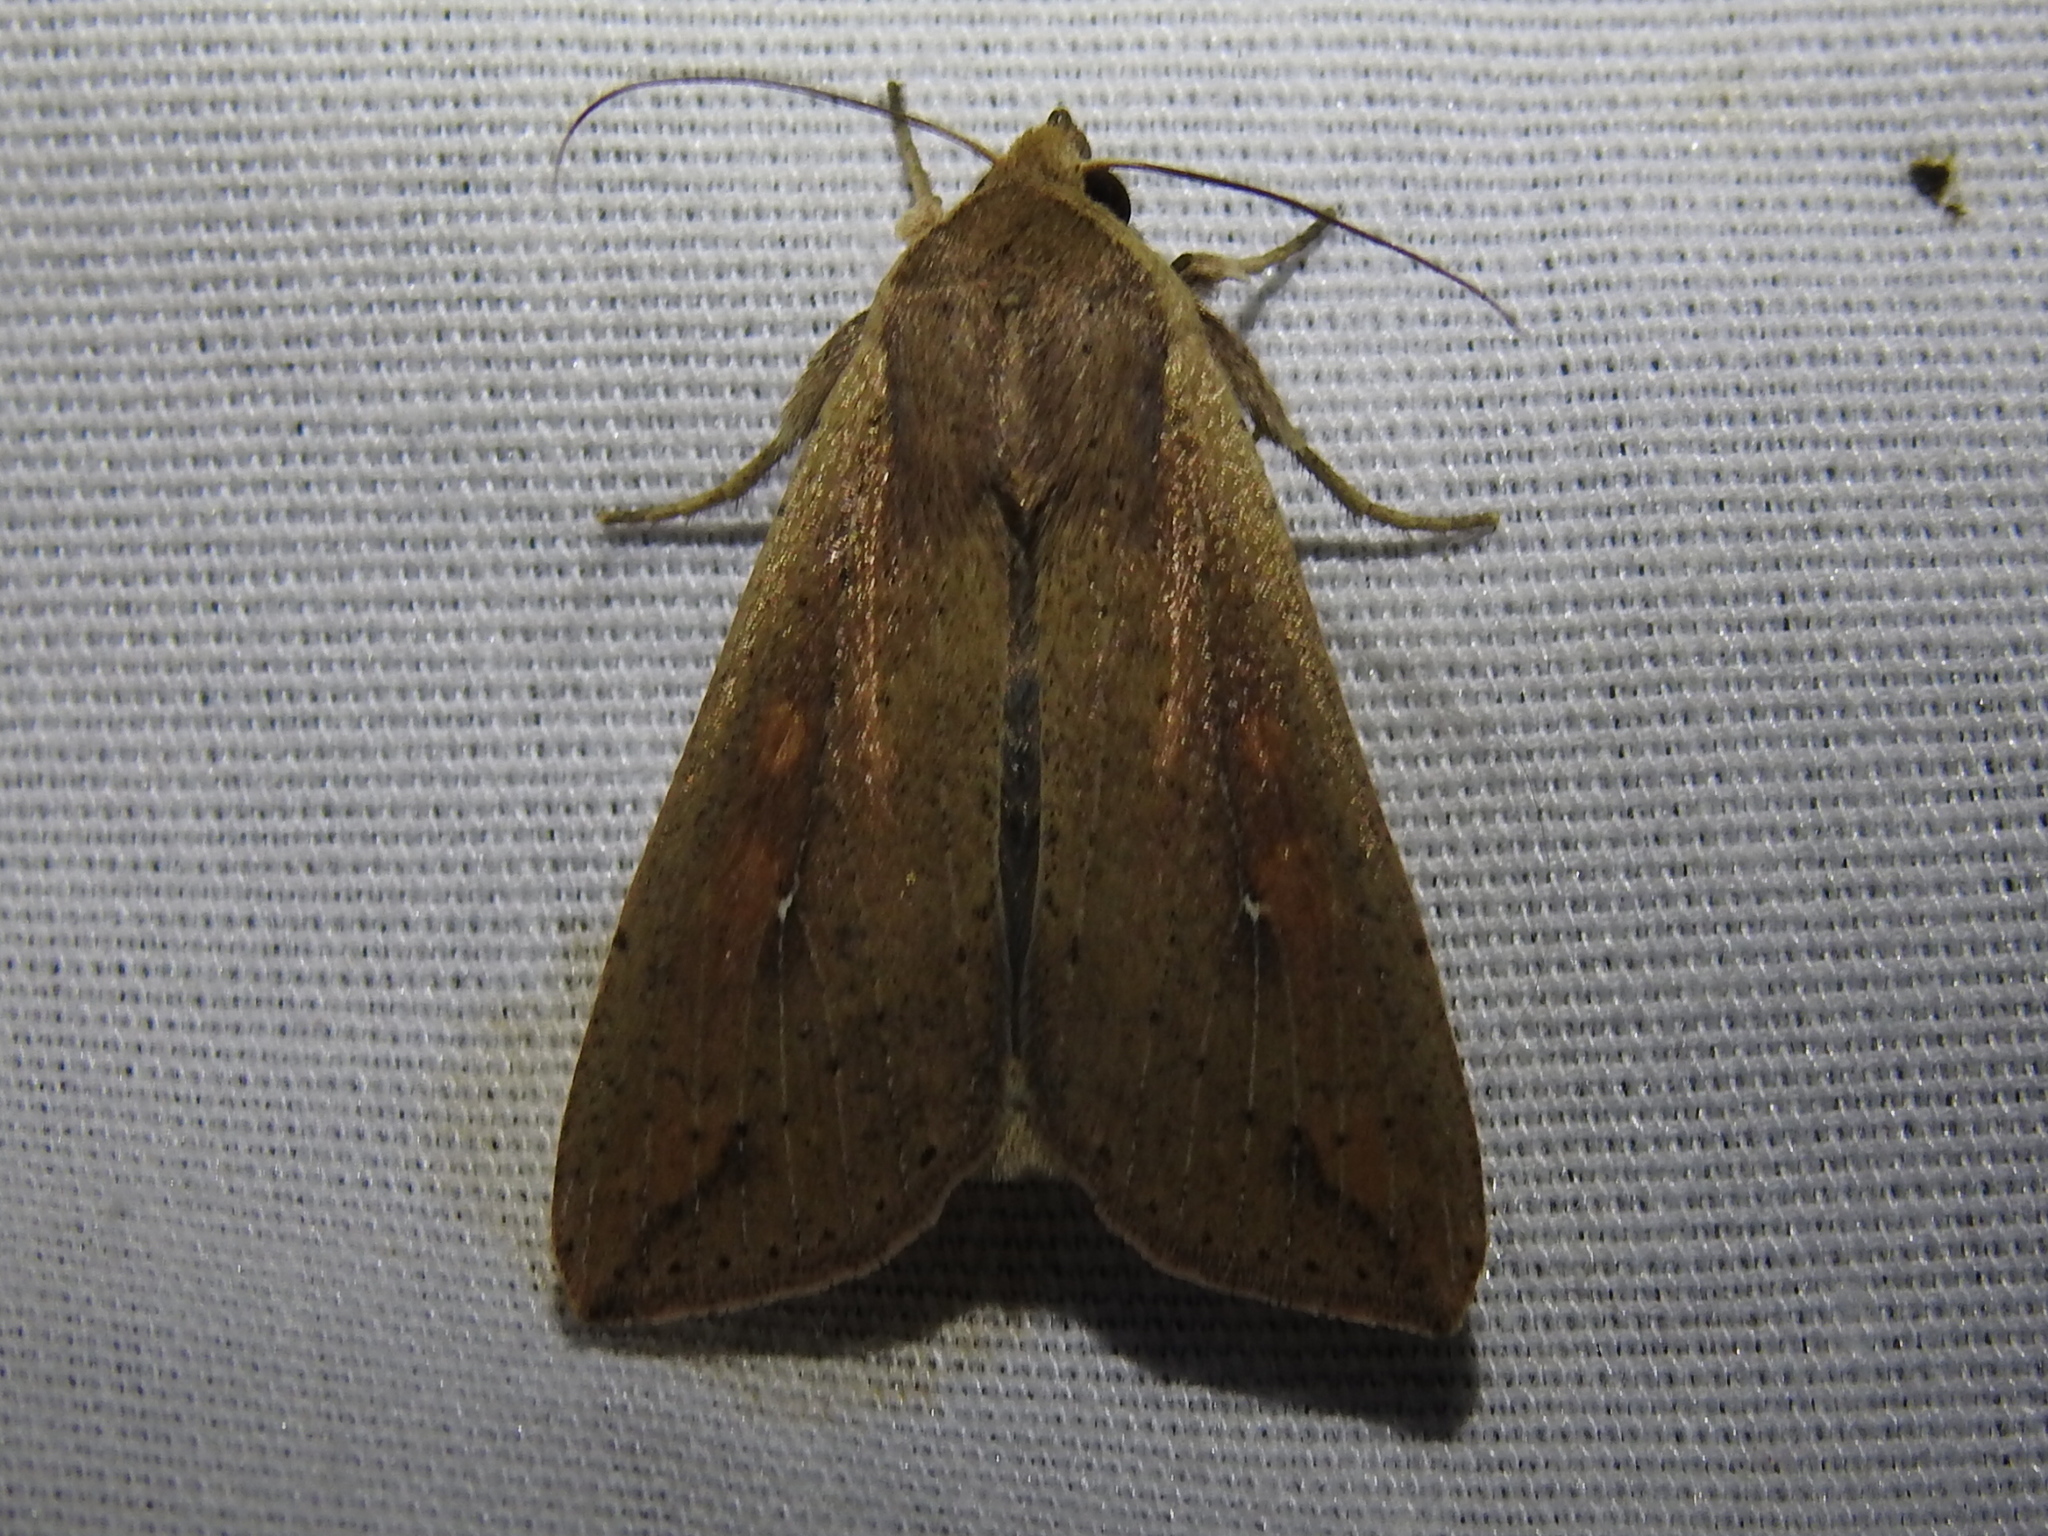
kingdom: Animalia
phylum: Arthropoda
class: Insecta
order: Lepidoptera
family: Noctuidae
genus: Mythimna
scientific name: Mythimna unipuncta
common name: White-speck
